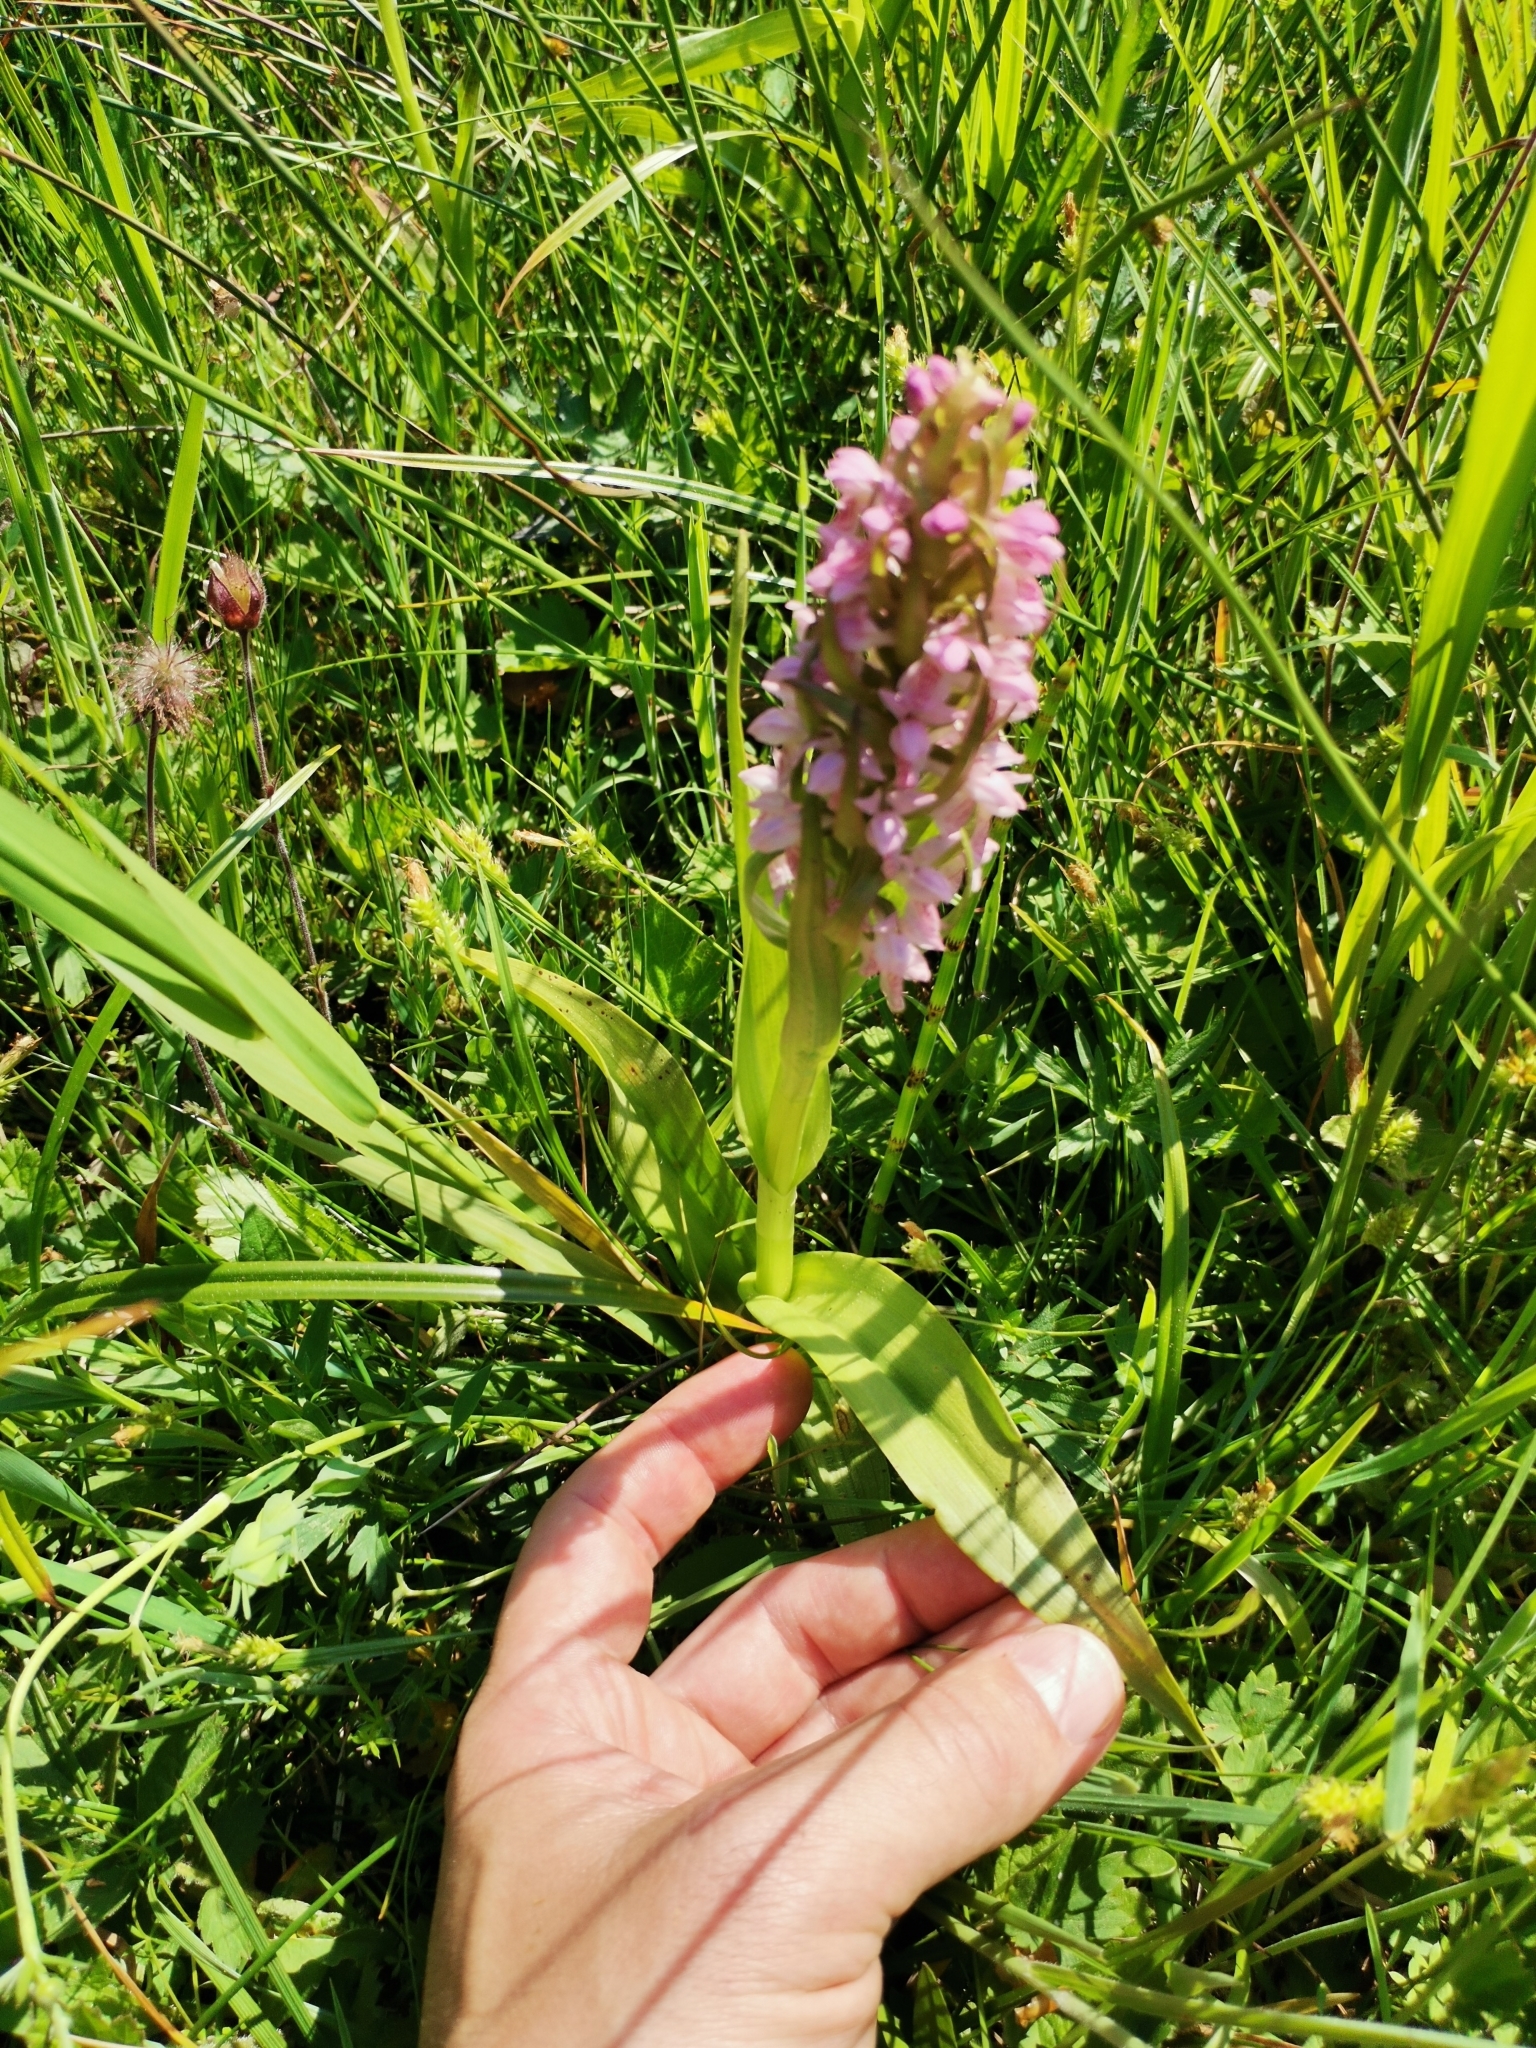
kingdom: Plantae
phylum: Tracheophyta
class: Liliopsida
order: Asparagales
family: Orchidaceae
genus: Dactylorhiza
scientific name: Dactylorhiza incarnata
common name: Early marsh-orchid
